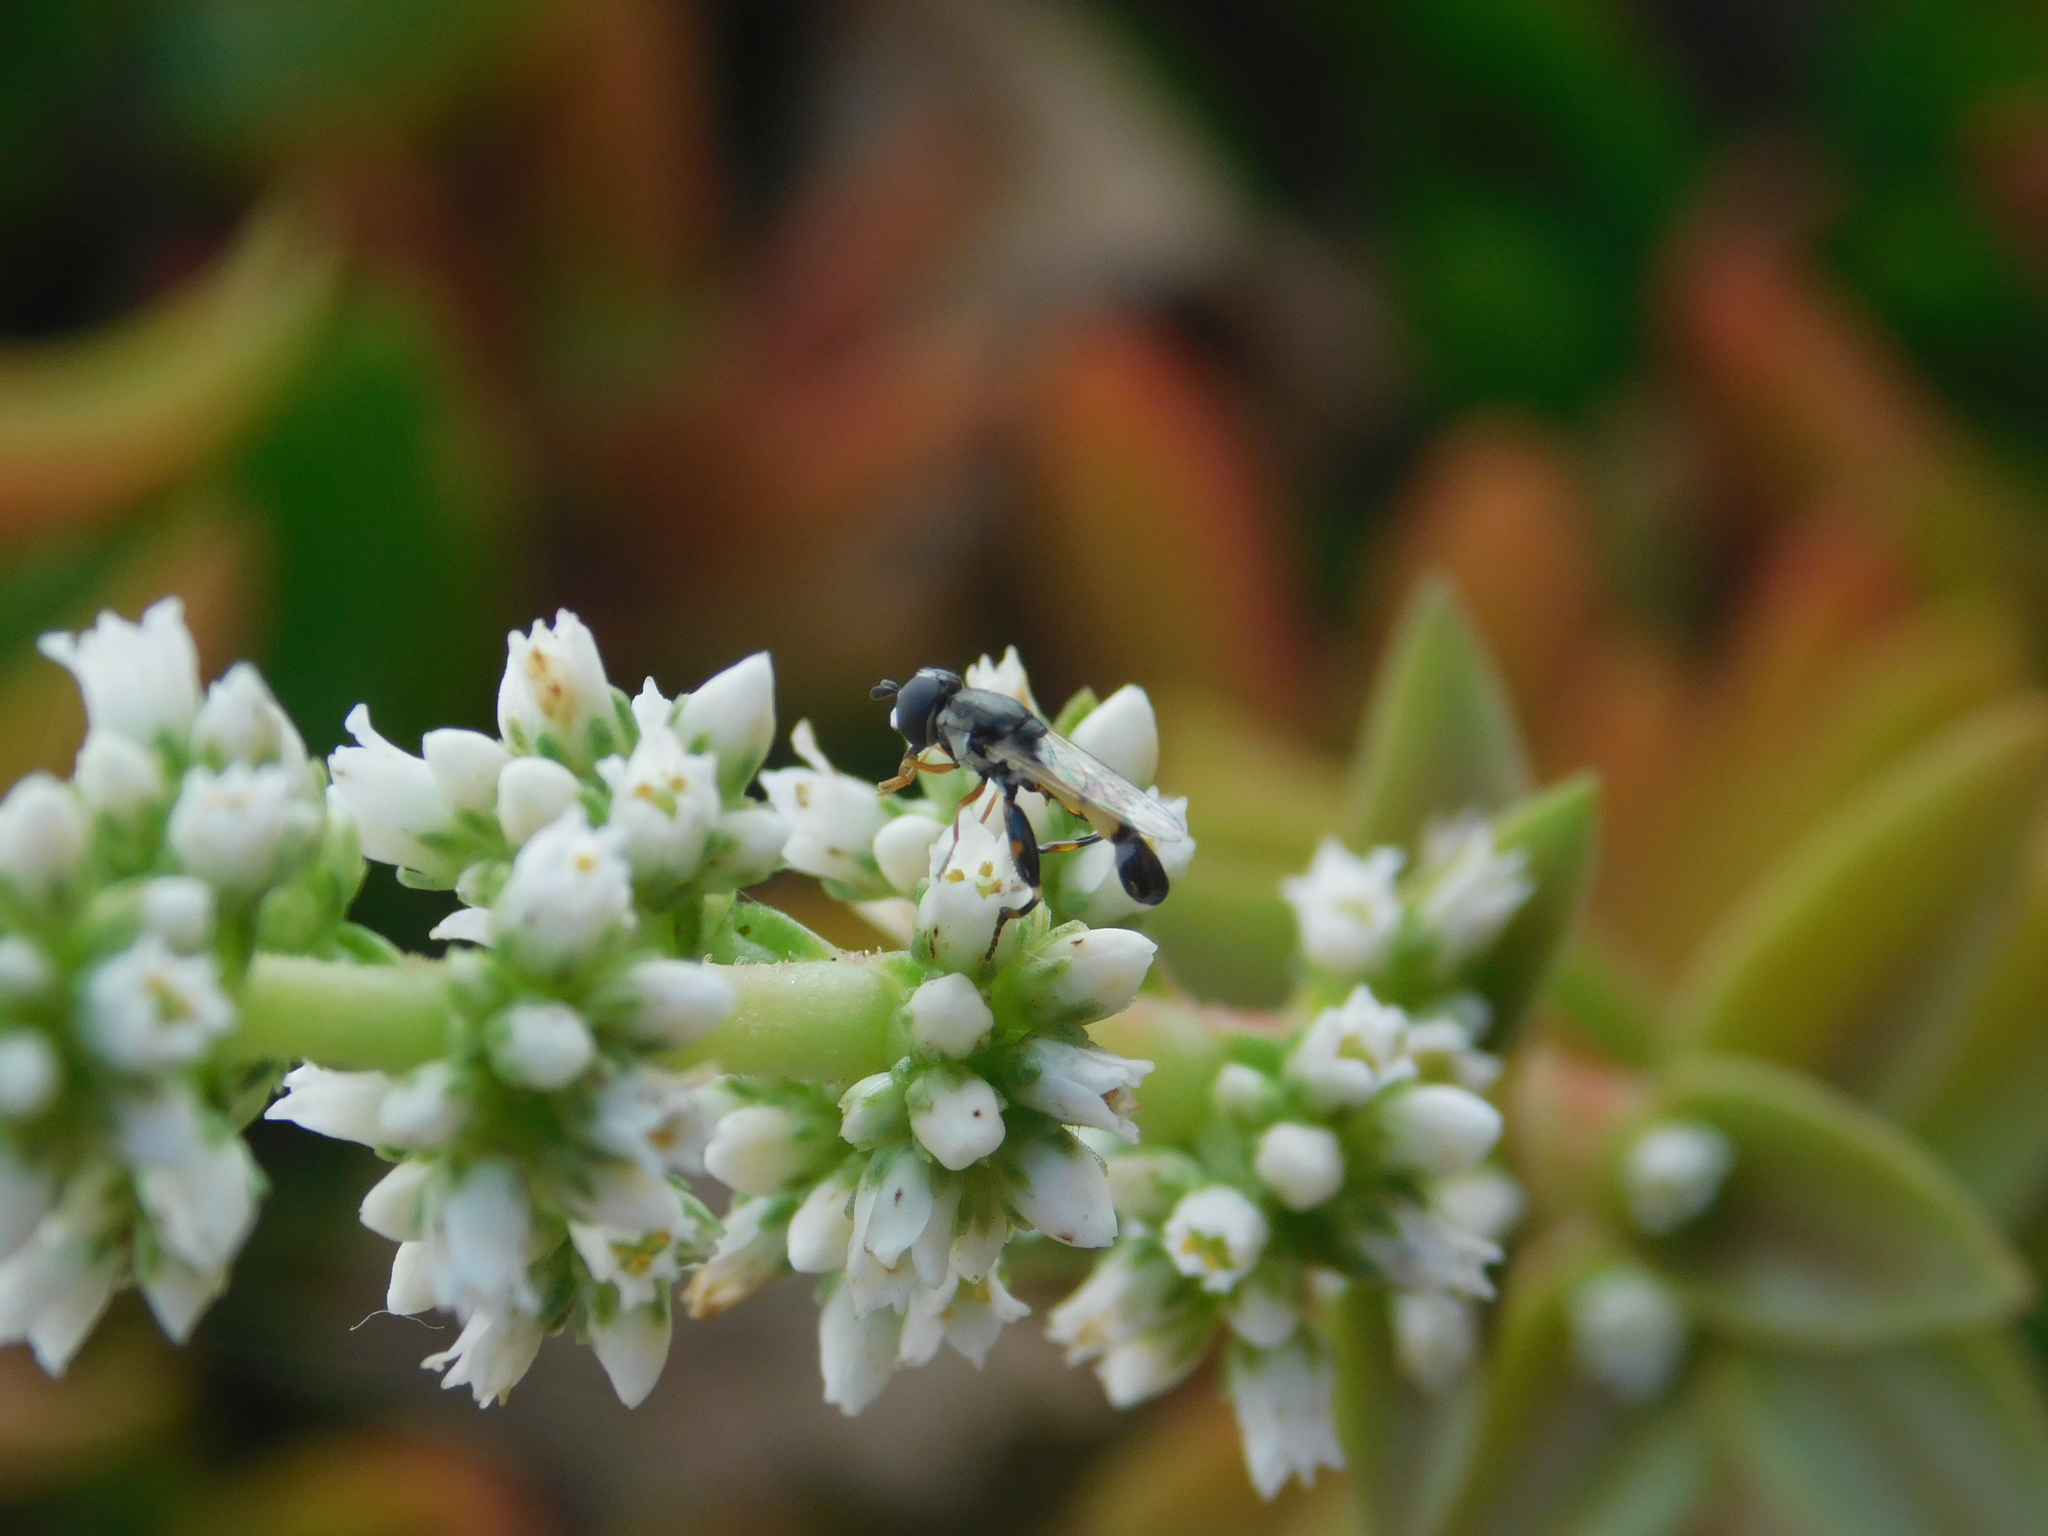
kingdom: Animalia
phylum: Arthropoda
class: Insecta
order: Diptera
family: Syrphidae
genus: Syritta
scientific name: Syritta flaviventris
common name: Syrphid fly
